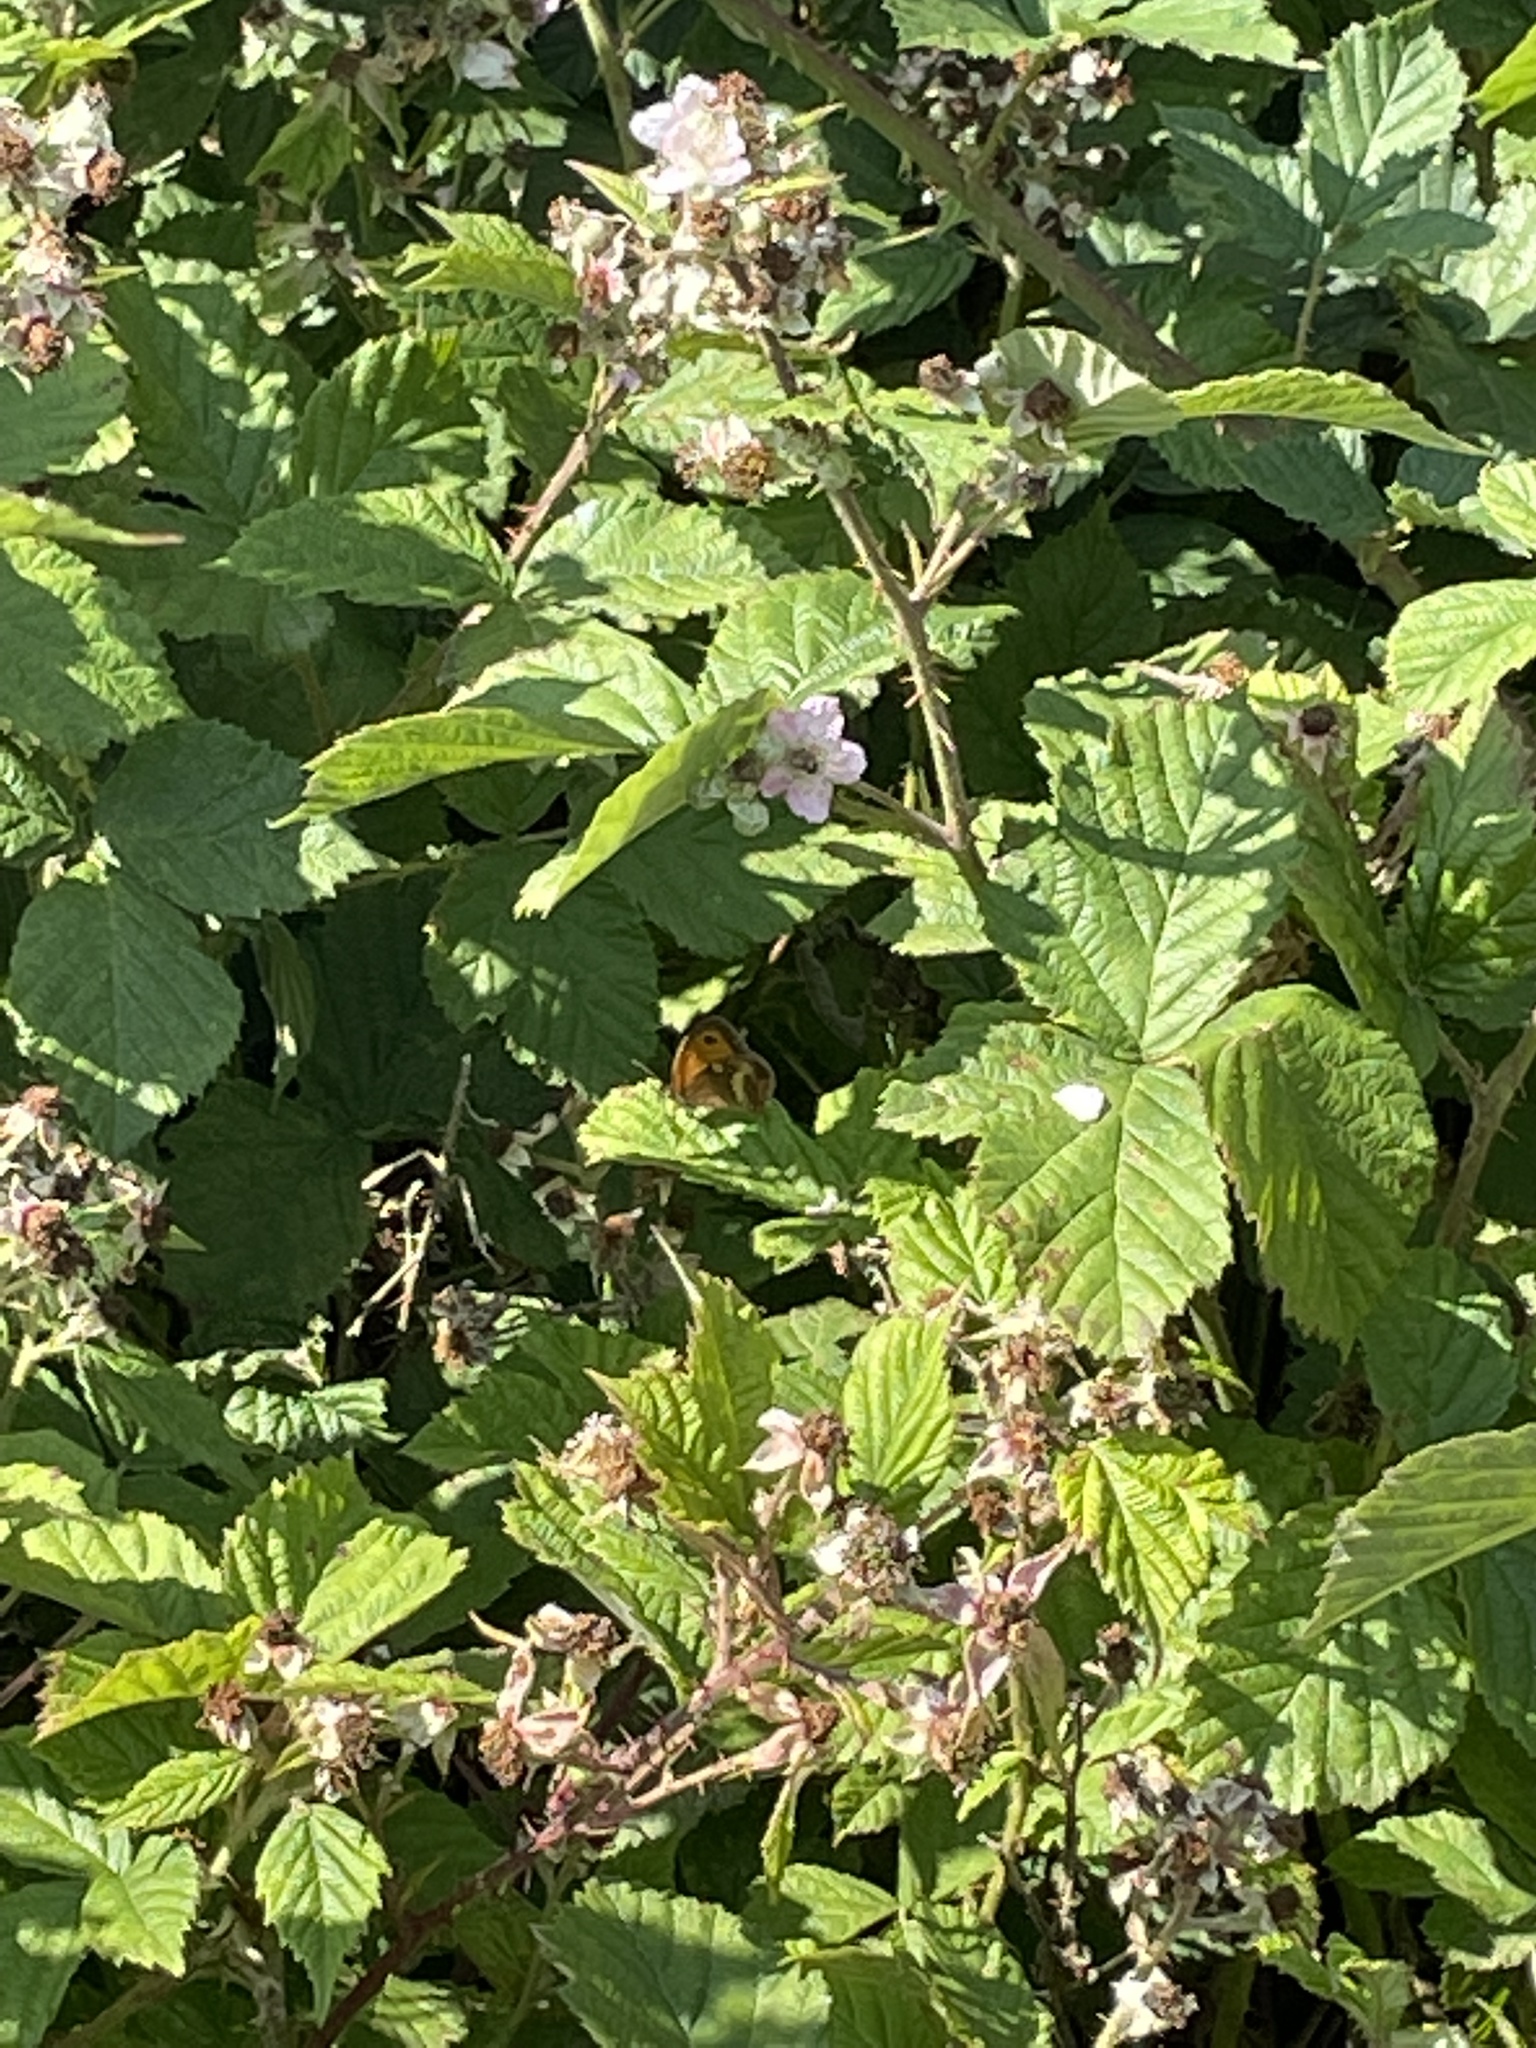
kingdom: Animalia
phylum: Arthropoda
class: Insecta
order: Lepidoptera
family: Nymphalidae
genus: Pyronia
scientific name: Pyronia tithonus
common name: Gatekeeper
